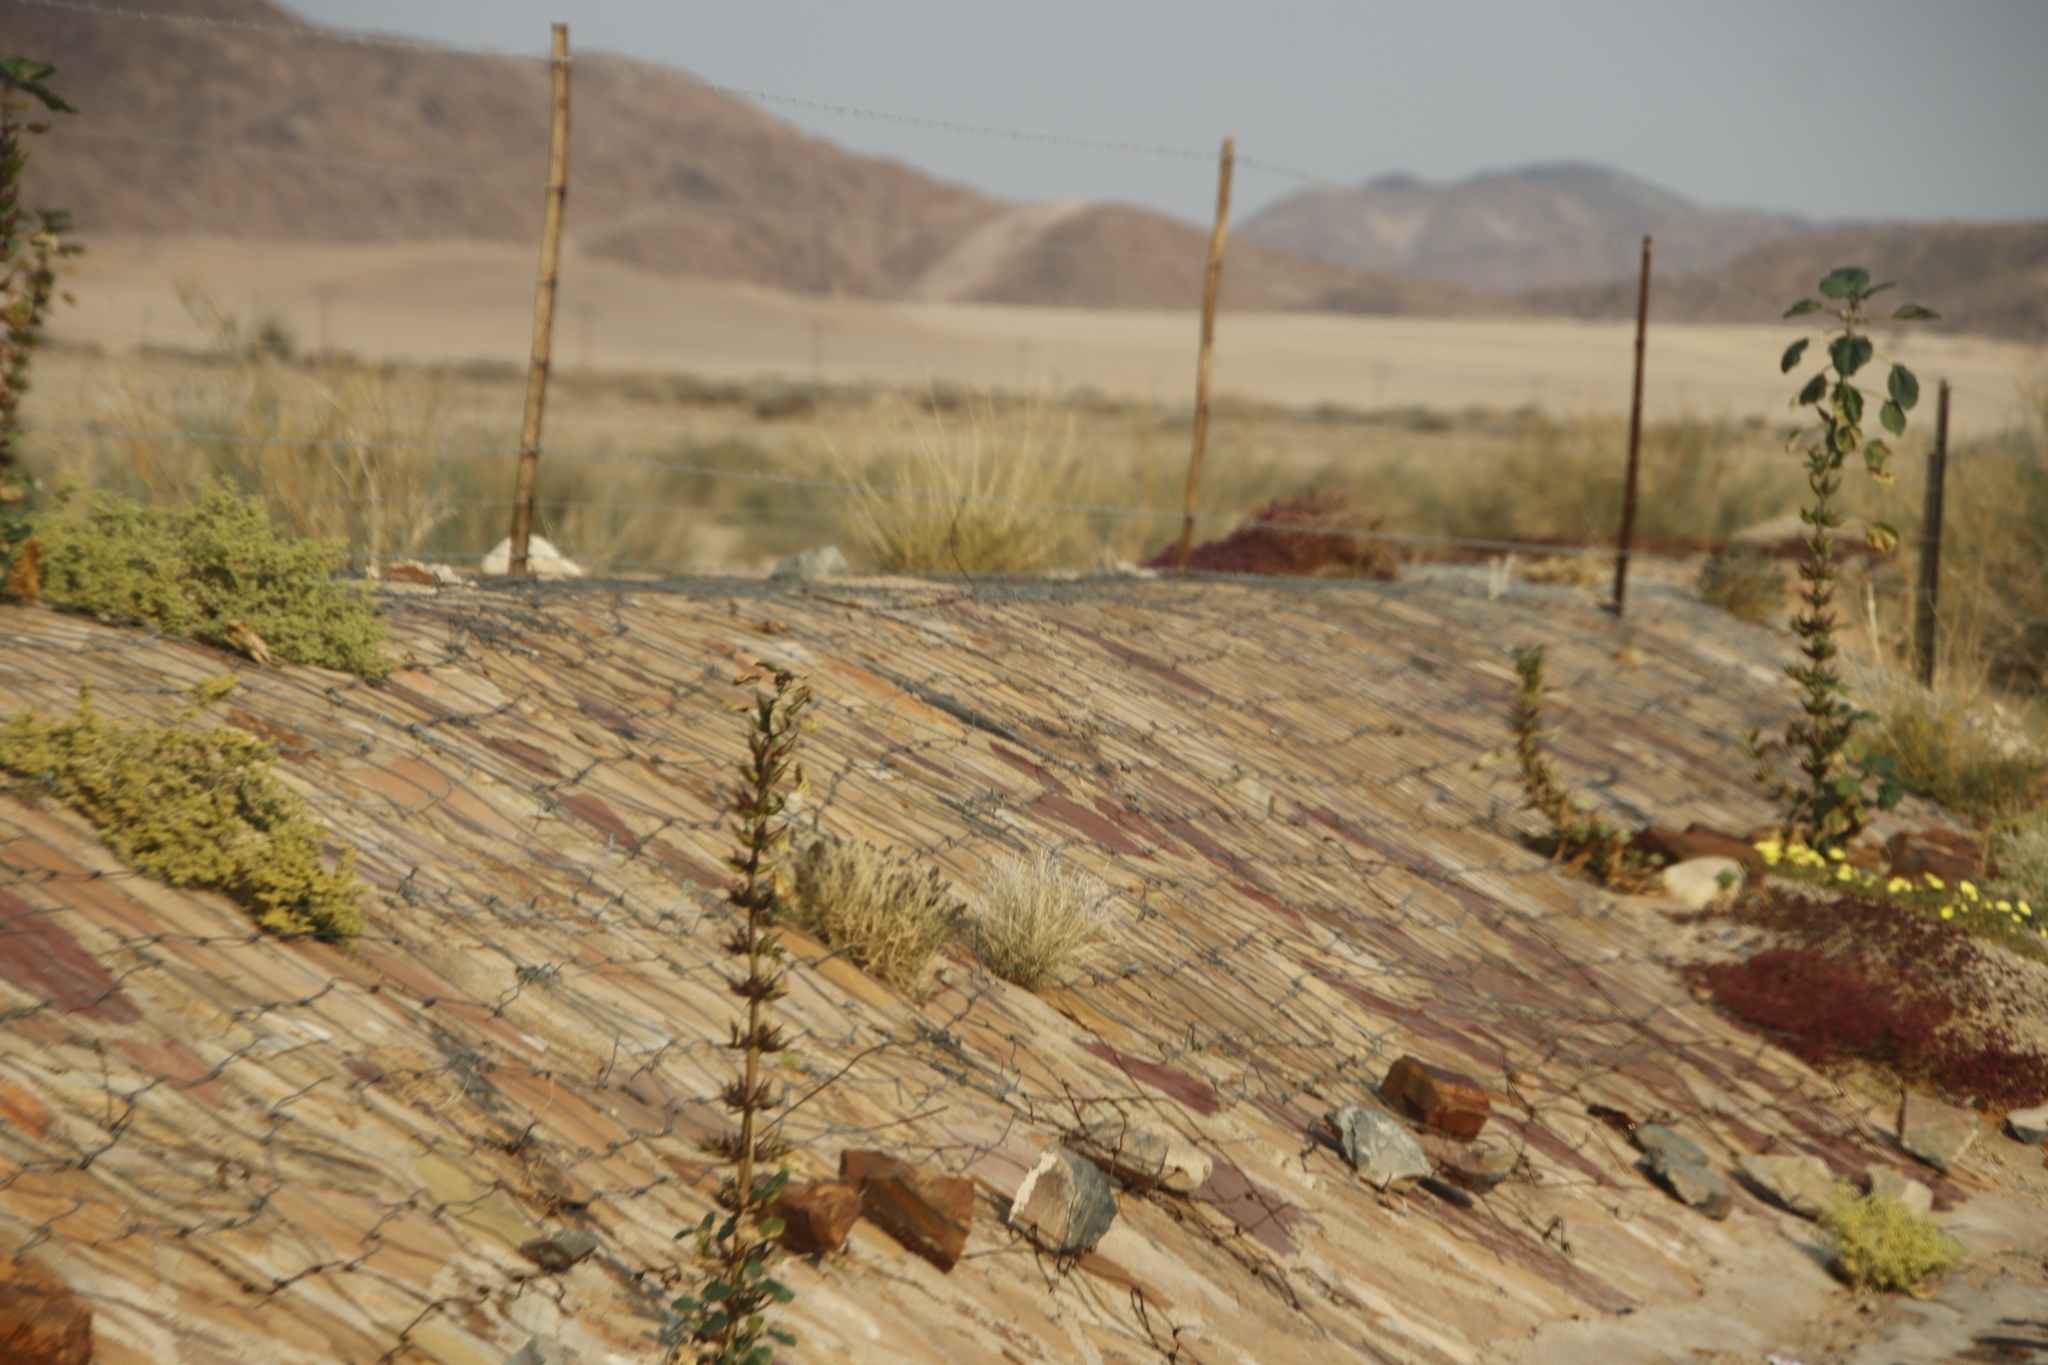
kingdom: Plantae
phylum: Tracheophyta
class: Magnoliopsida
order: Lamiales
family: Pedaliaceae
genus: Rogeria
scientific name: Rogeria longiflora
